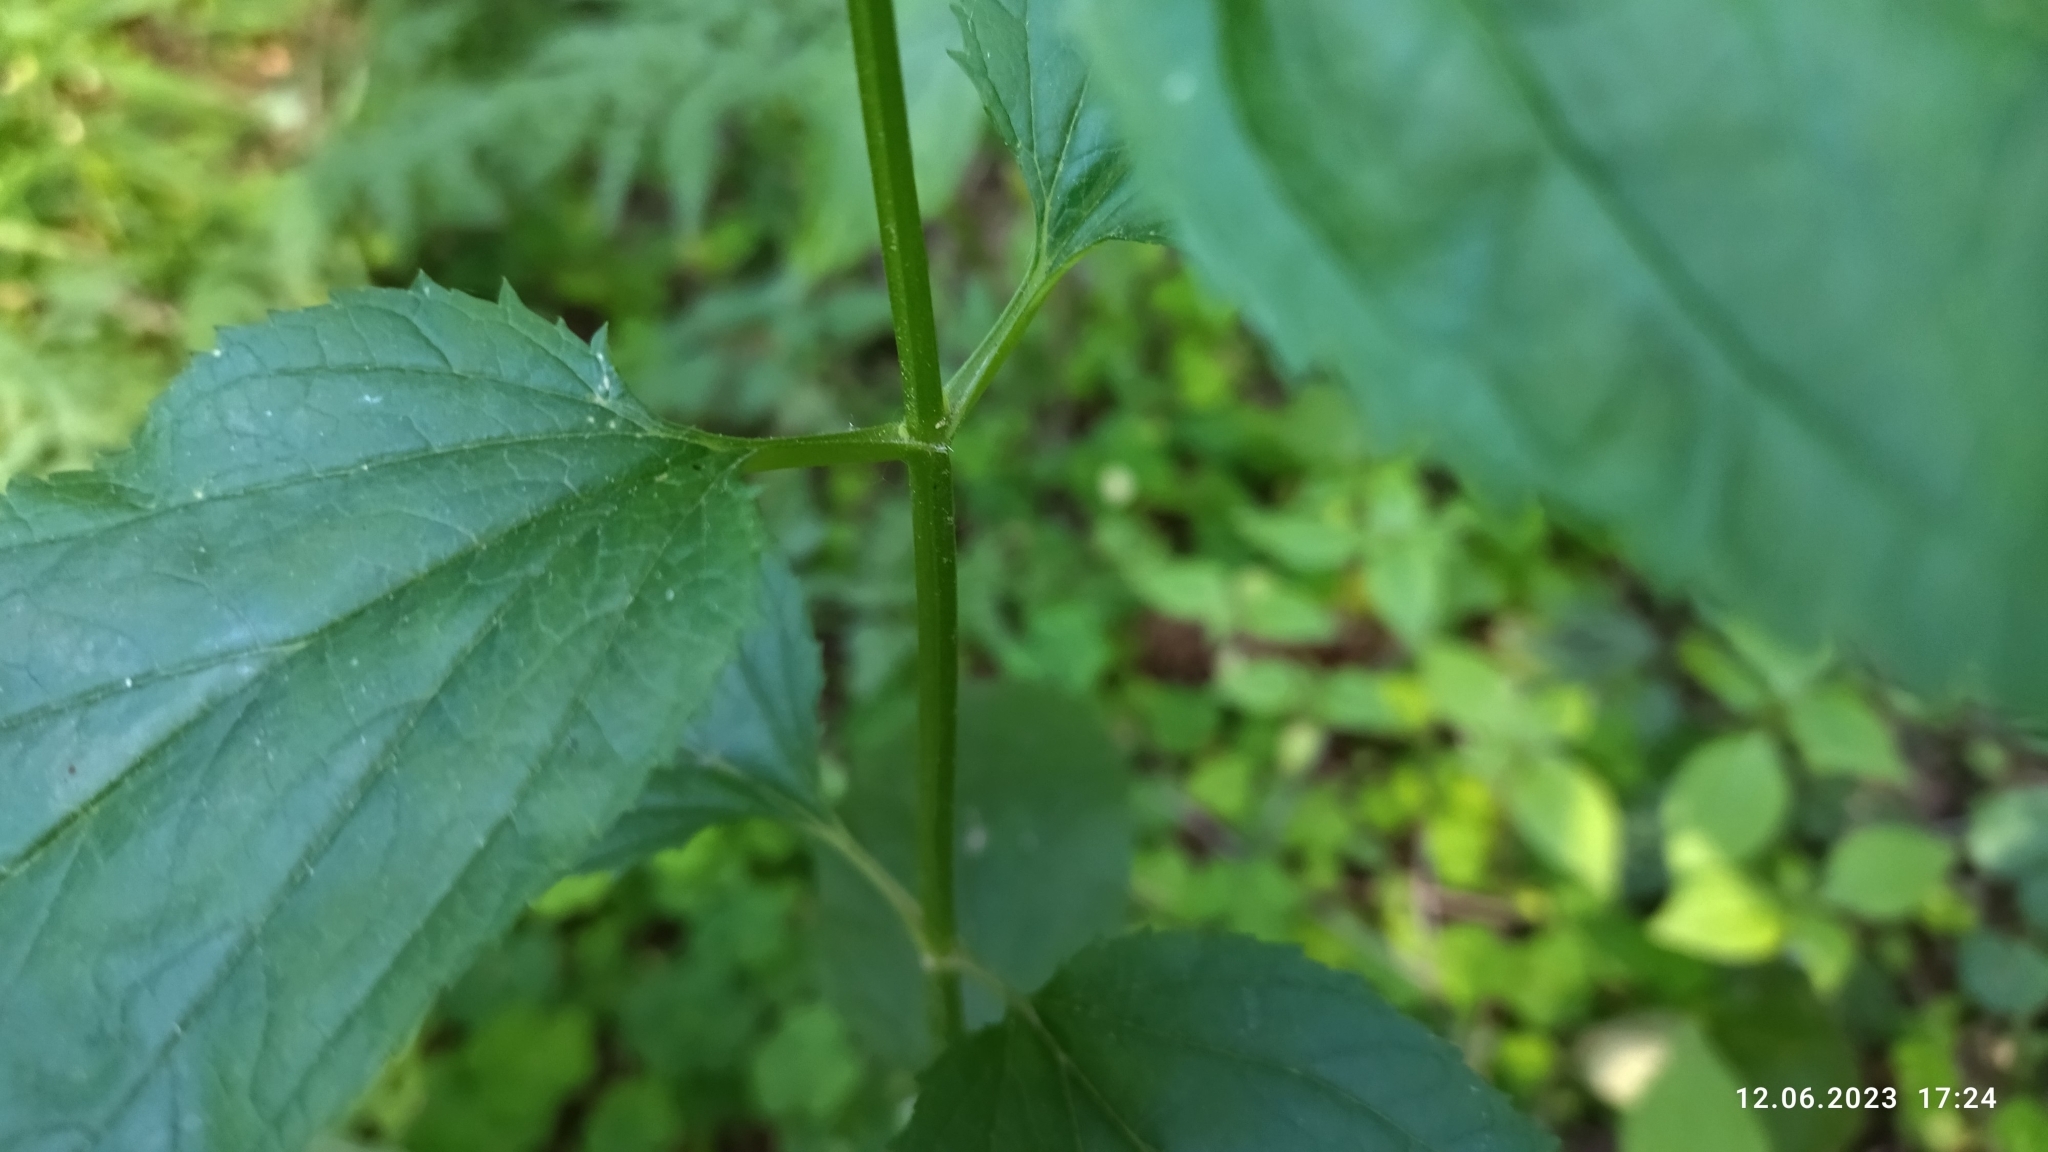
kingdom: Plantae
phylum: Tracheophyta
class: Magnoliopsida
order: Lamiales
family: Scrophulariaceae
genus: Scrophularia
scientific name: Scrophularia nodosa
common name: Common figwort
